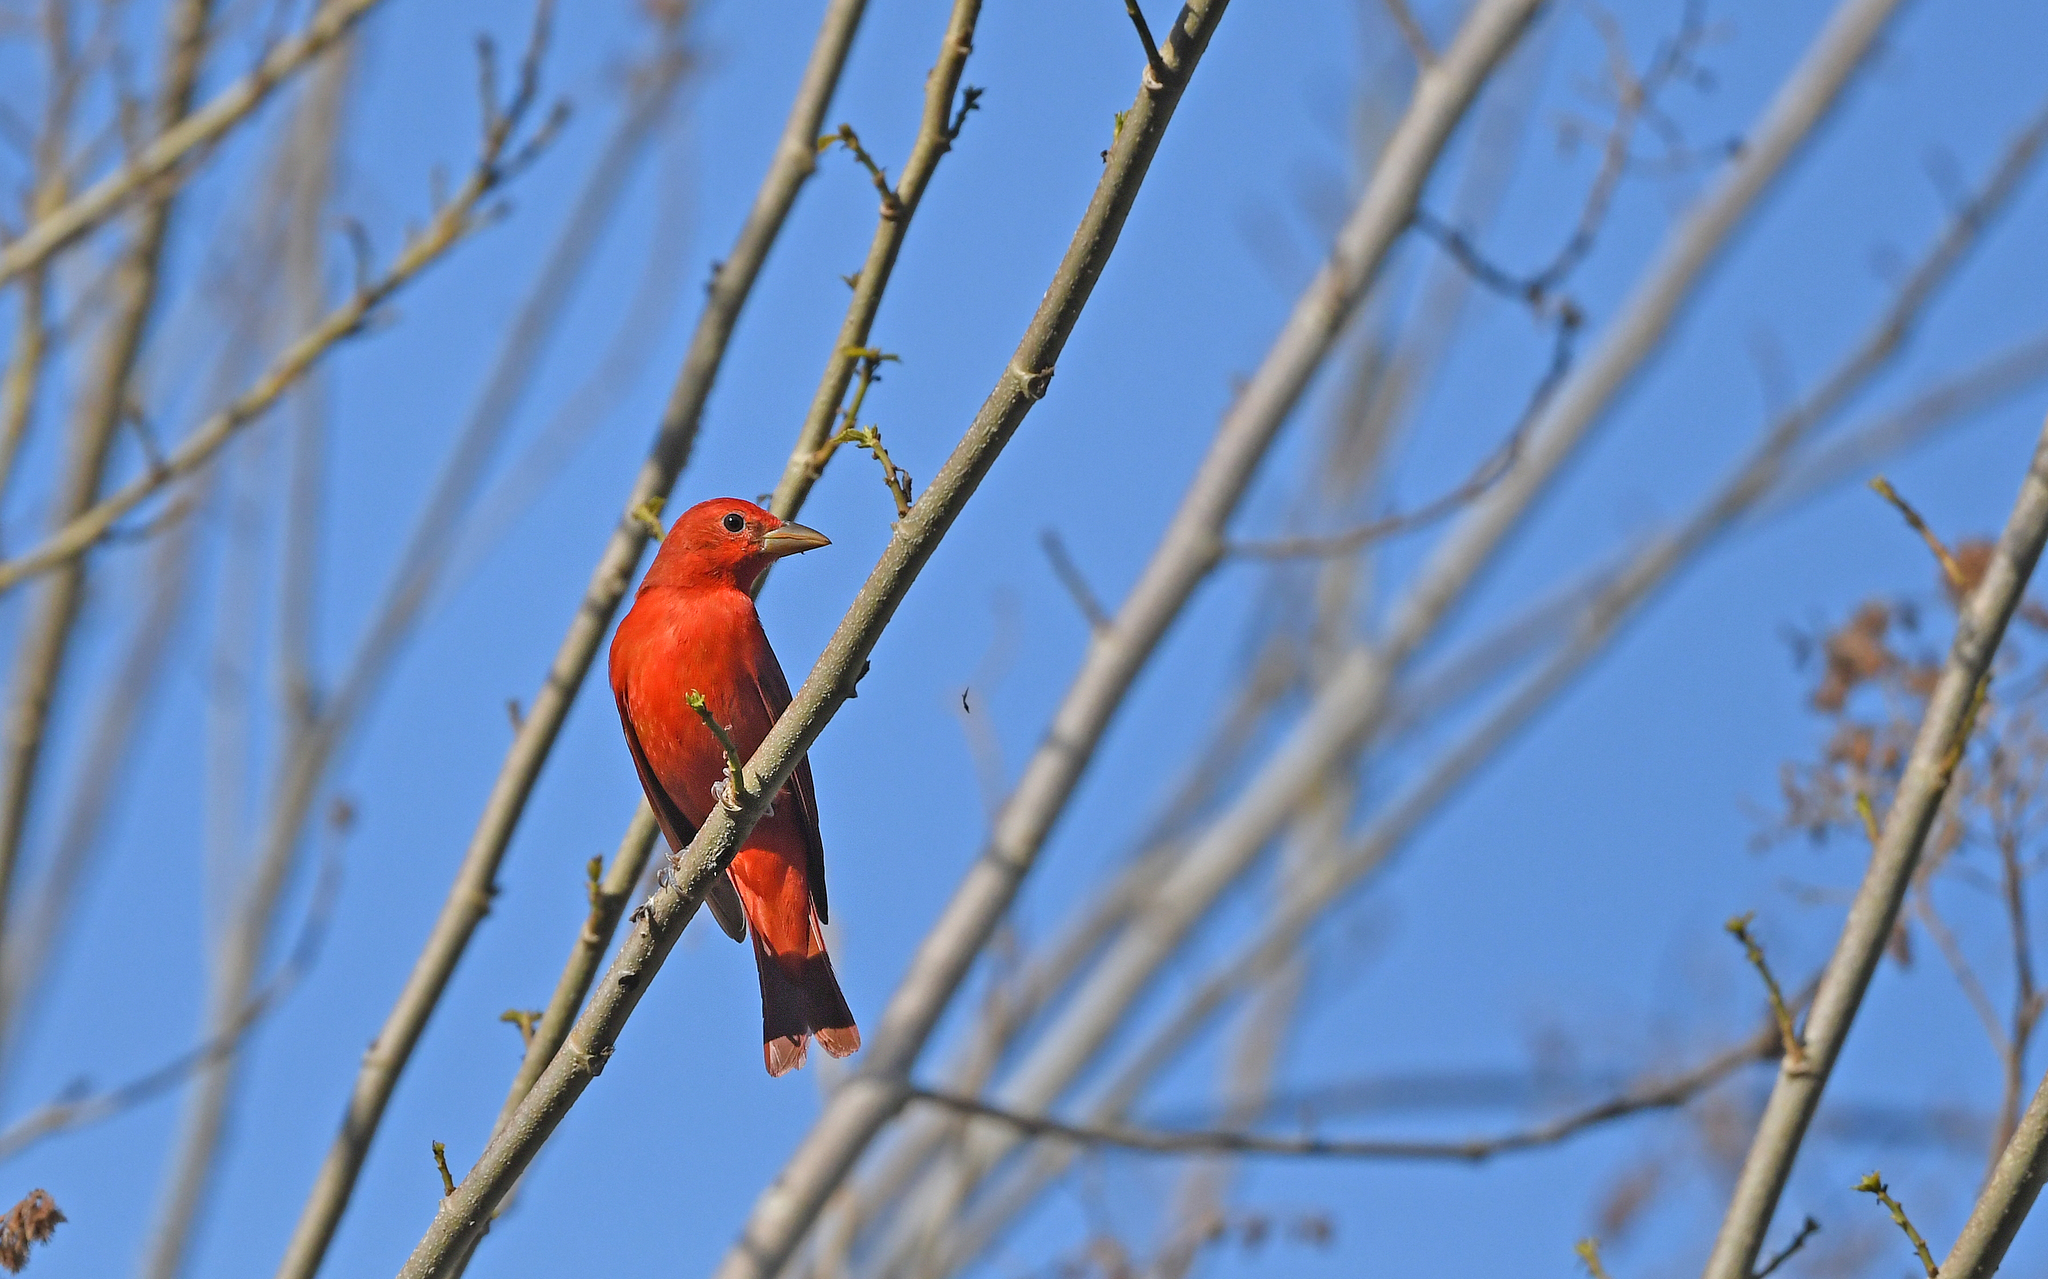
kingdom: Animalia
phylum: Chordata
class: Aves
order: Passeriformes
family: Cardinalidae
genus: Piranga
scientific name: Piranga rubra
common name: Summer tanager
